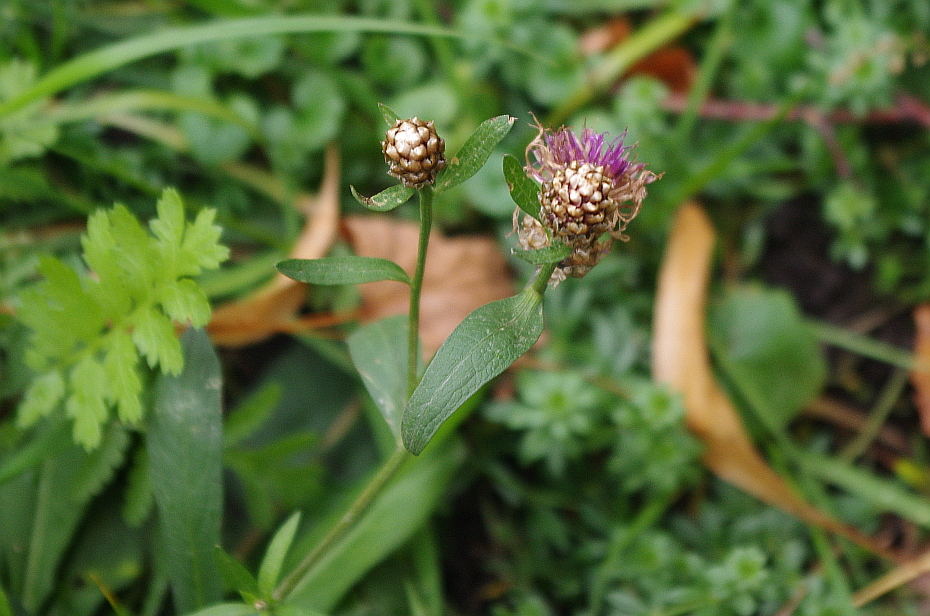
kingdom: Plantae
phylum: Tracheophyta
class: Magnoliopsida
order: Asterales
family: Asteraceae
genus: Centaurea
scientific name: Centaurea jacea
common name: Brown knapweed
